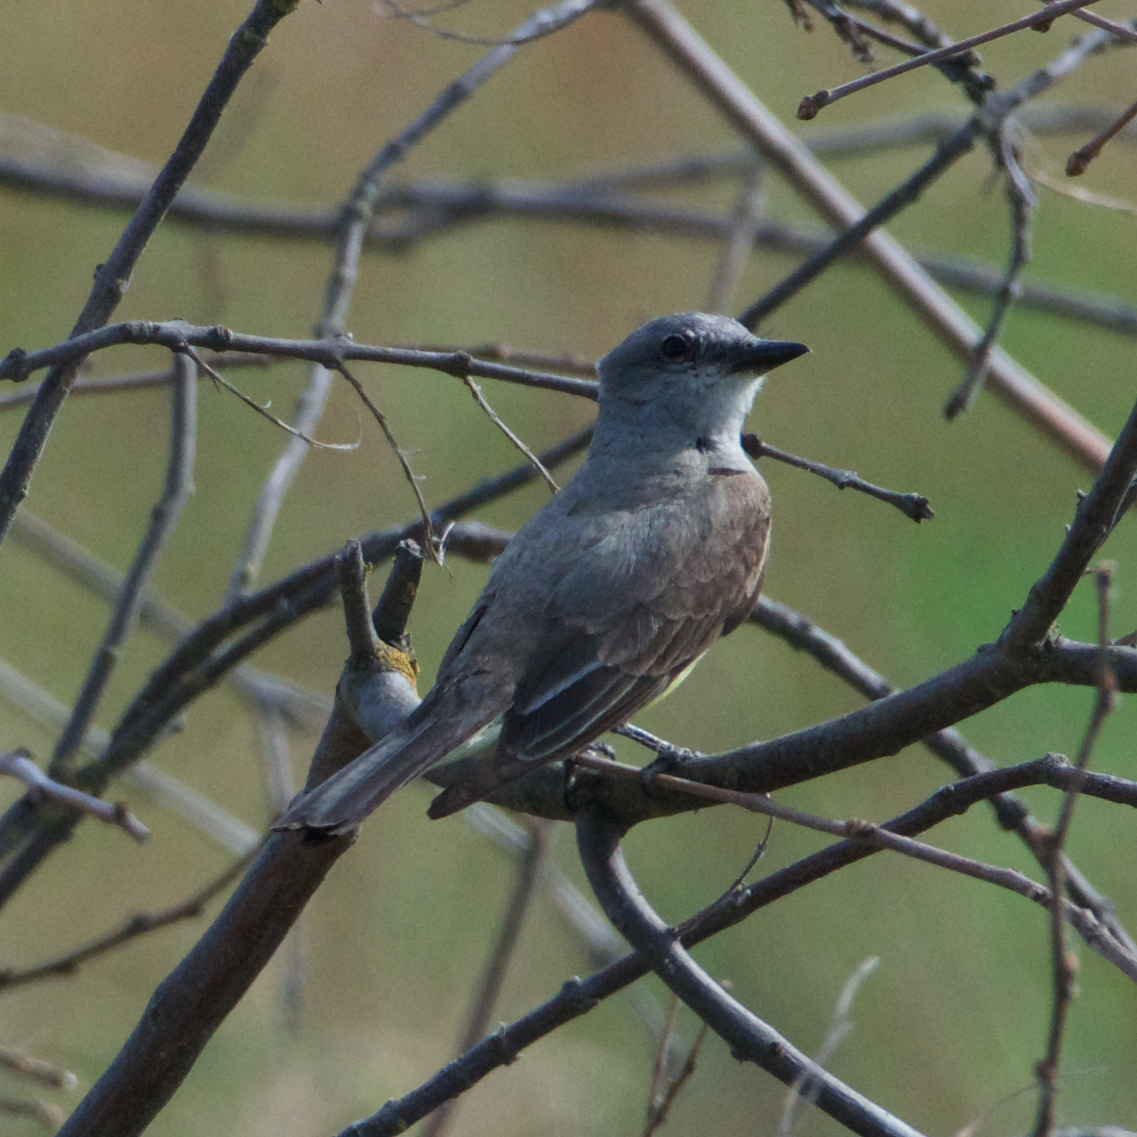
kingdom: Animalia
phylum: Chordata
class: Aves
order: Passeriformes
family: Tyrannidae
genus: Tyrannus
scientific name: Tyrannus verticalis
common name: Western kingbird
